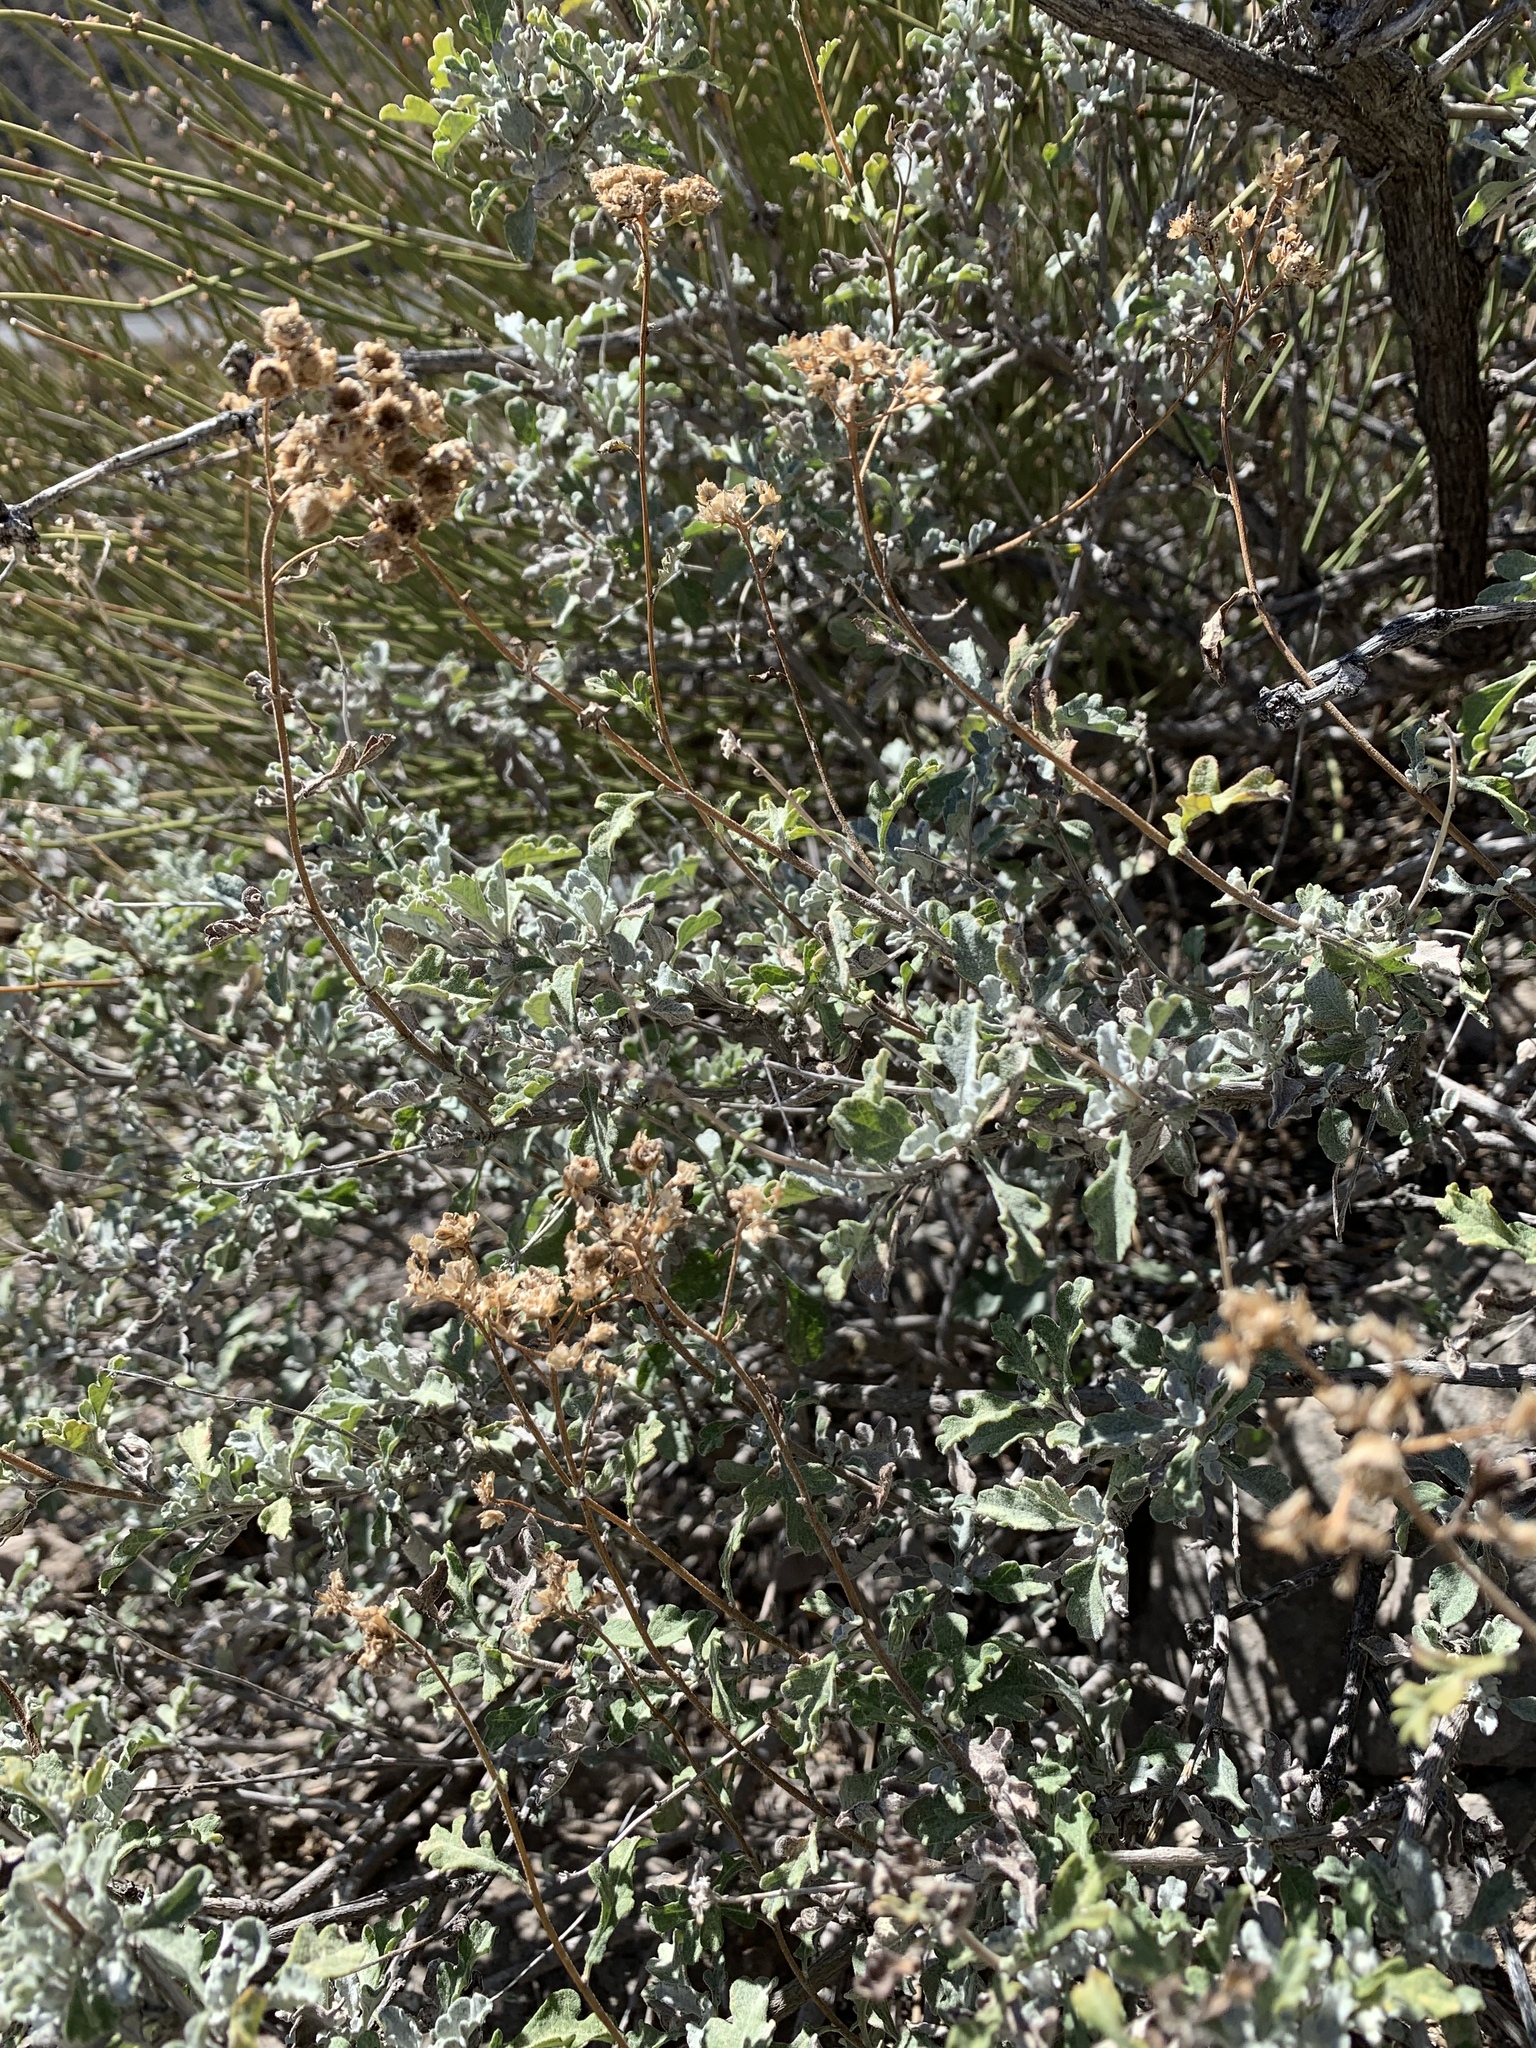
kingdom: Plantae
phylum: Tracheophyta
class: Magnoliopsida
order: Asterales
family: Asteraceae
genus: Parthenium
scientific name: Parthenium incanum
